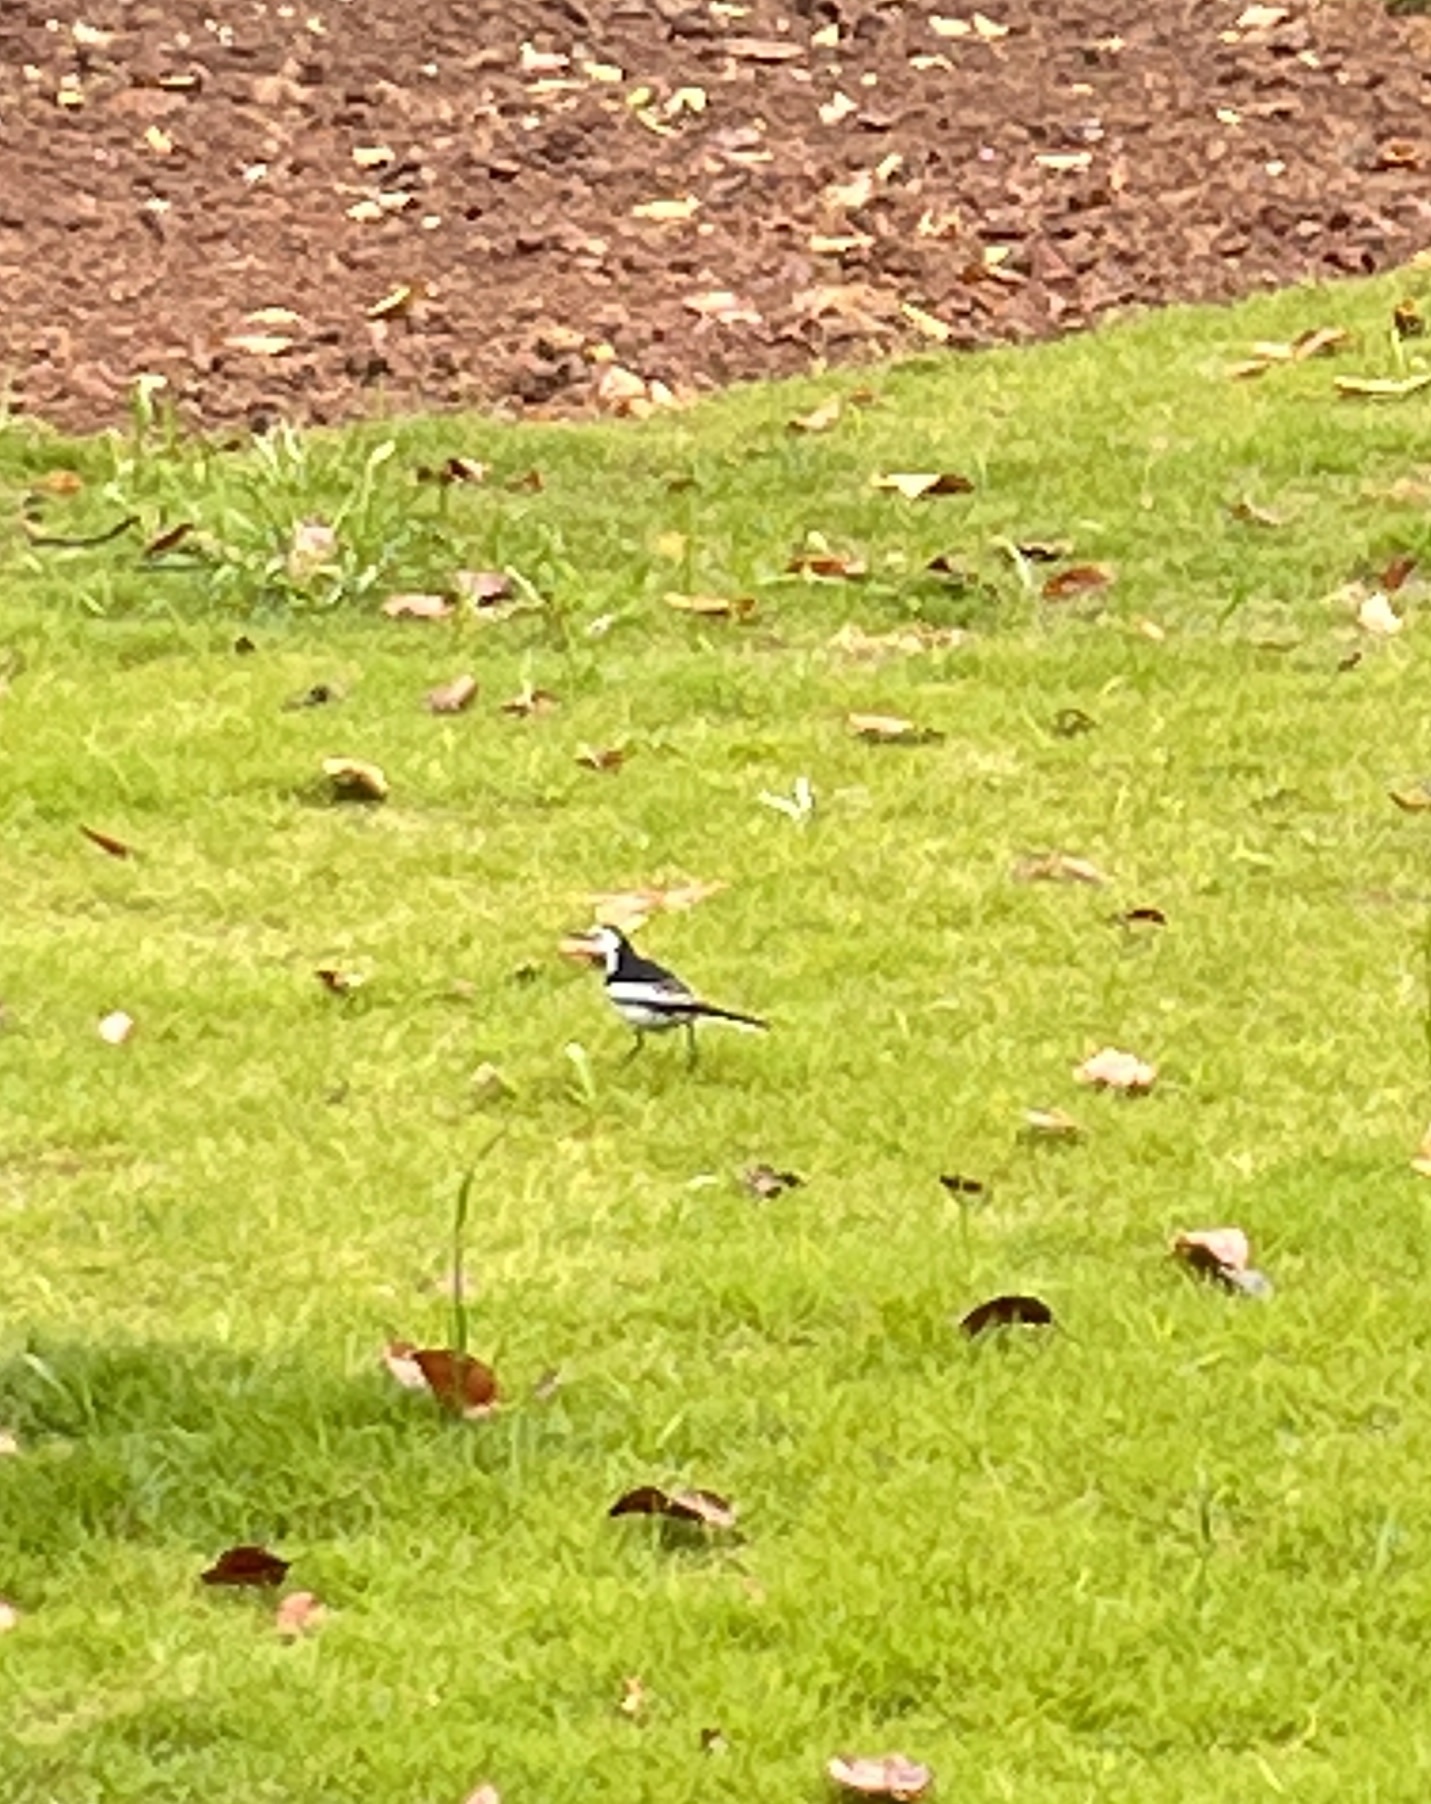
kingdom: Animalia
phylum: Chordata
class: Aves
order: Passeriformes
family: Motacillidae
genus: Motacilla
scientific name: Motacilla alba
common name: White wagtail
